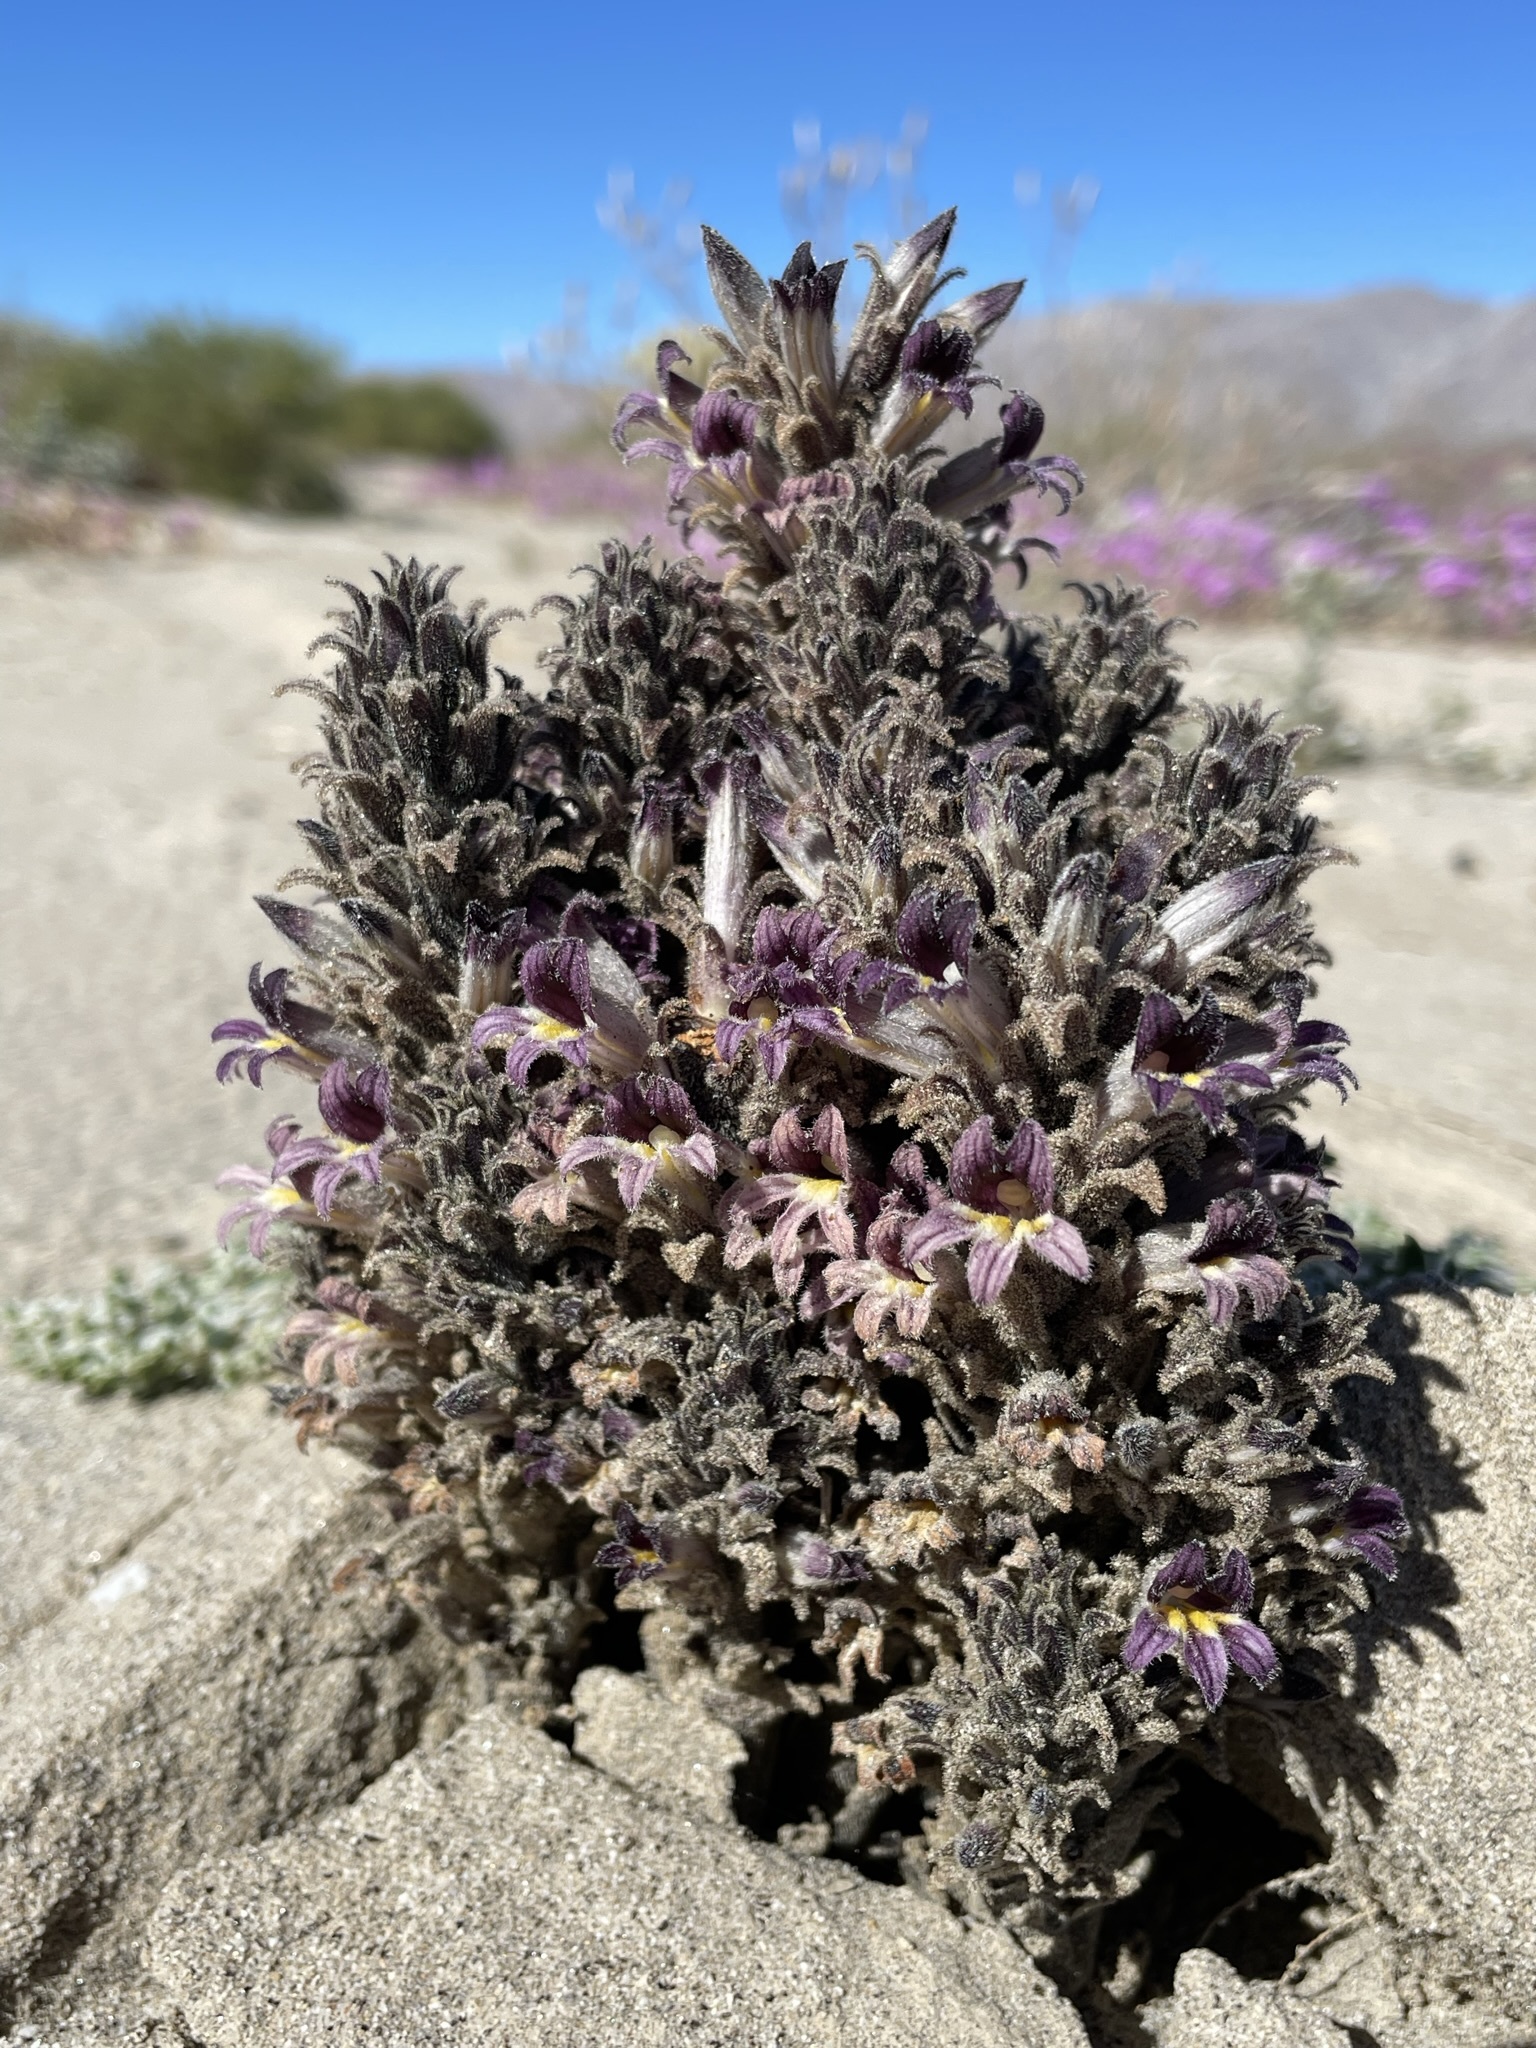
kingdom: Plantae
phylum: Tracheophyta
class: Magnoliopsida
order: Lamiales
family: Orobanchaceae
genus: Aphyllon
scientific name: Aphyllon cooperi
